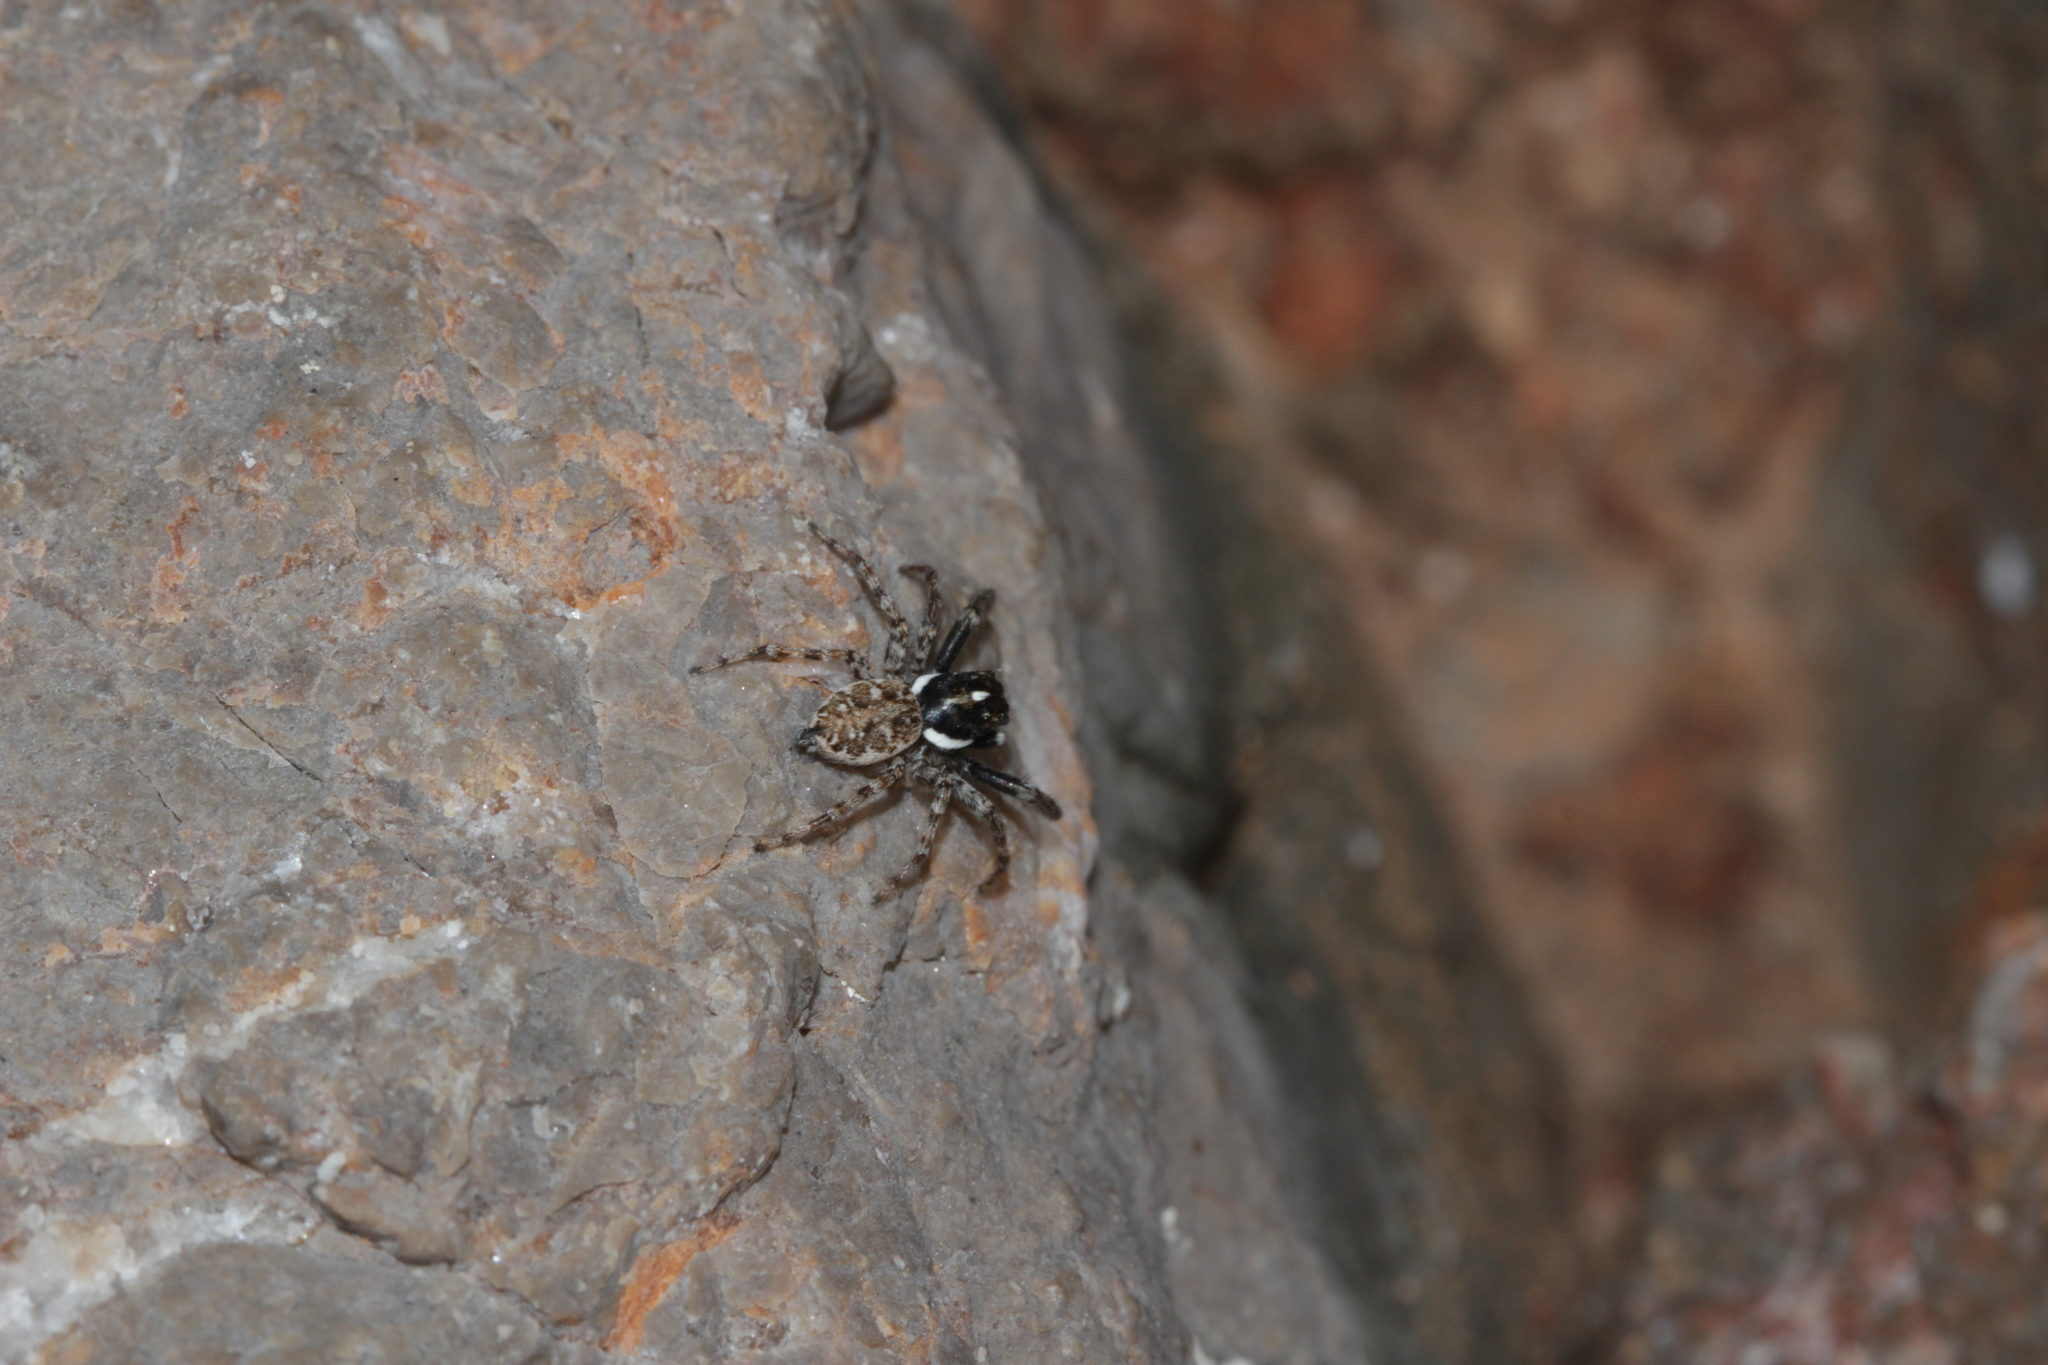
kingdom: Animalia
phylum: Arthropoda
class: Arachnida
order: Araneae
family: Salticidae
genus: Menemerus
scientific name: Menemerus semilimbatus
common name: Jumping spider
